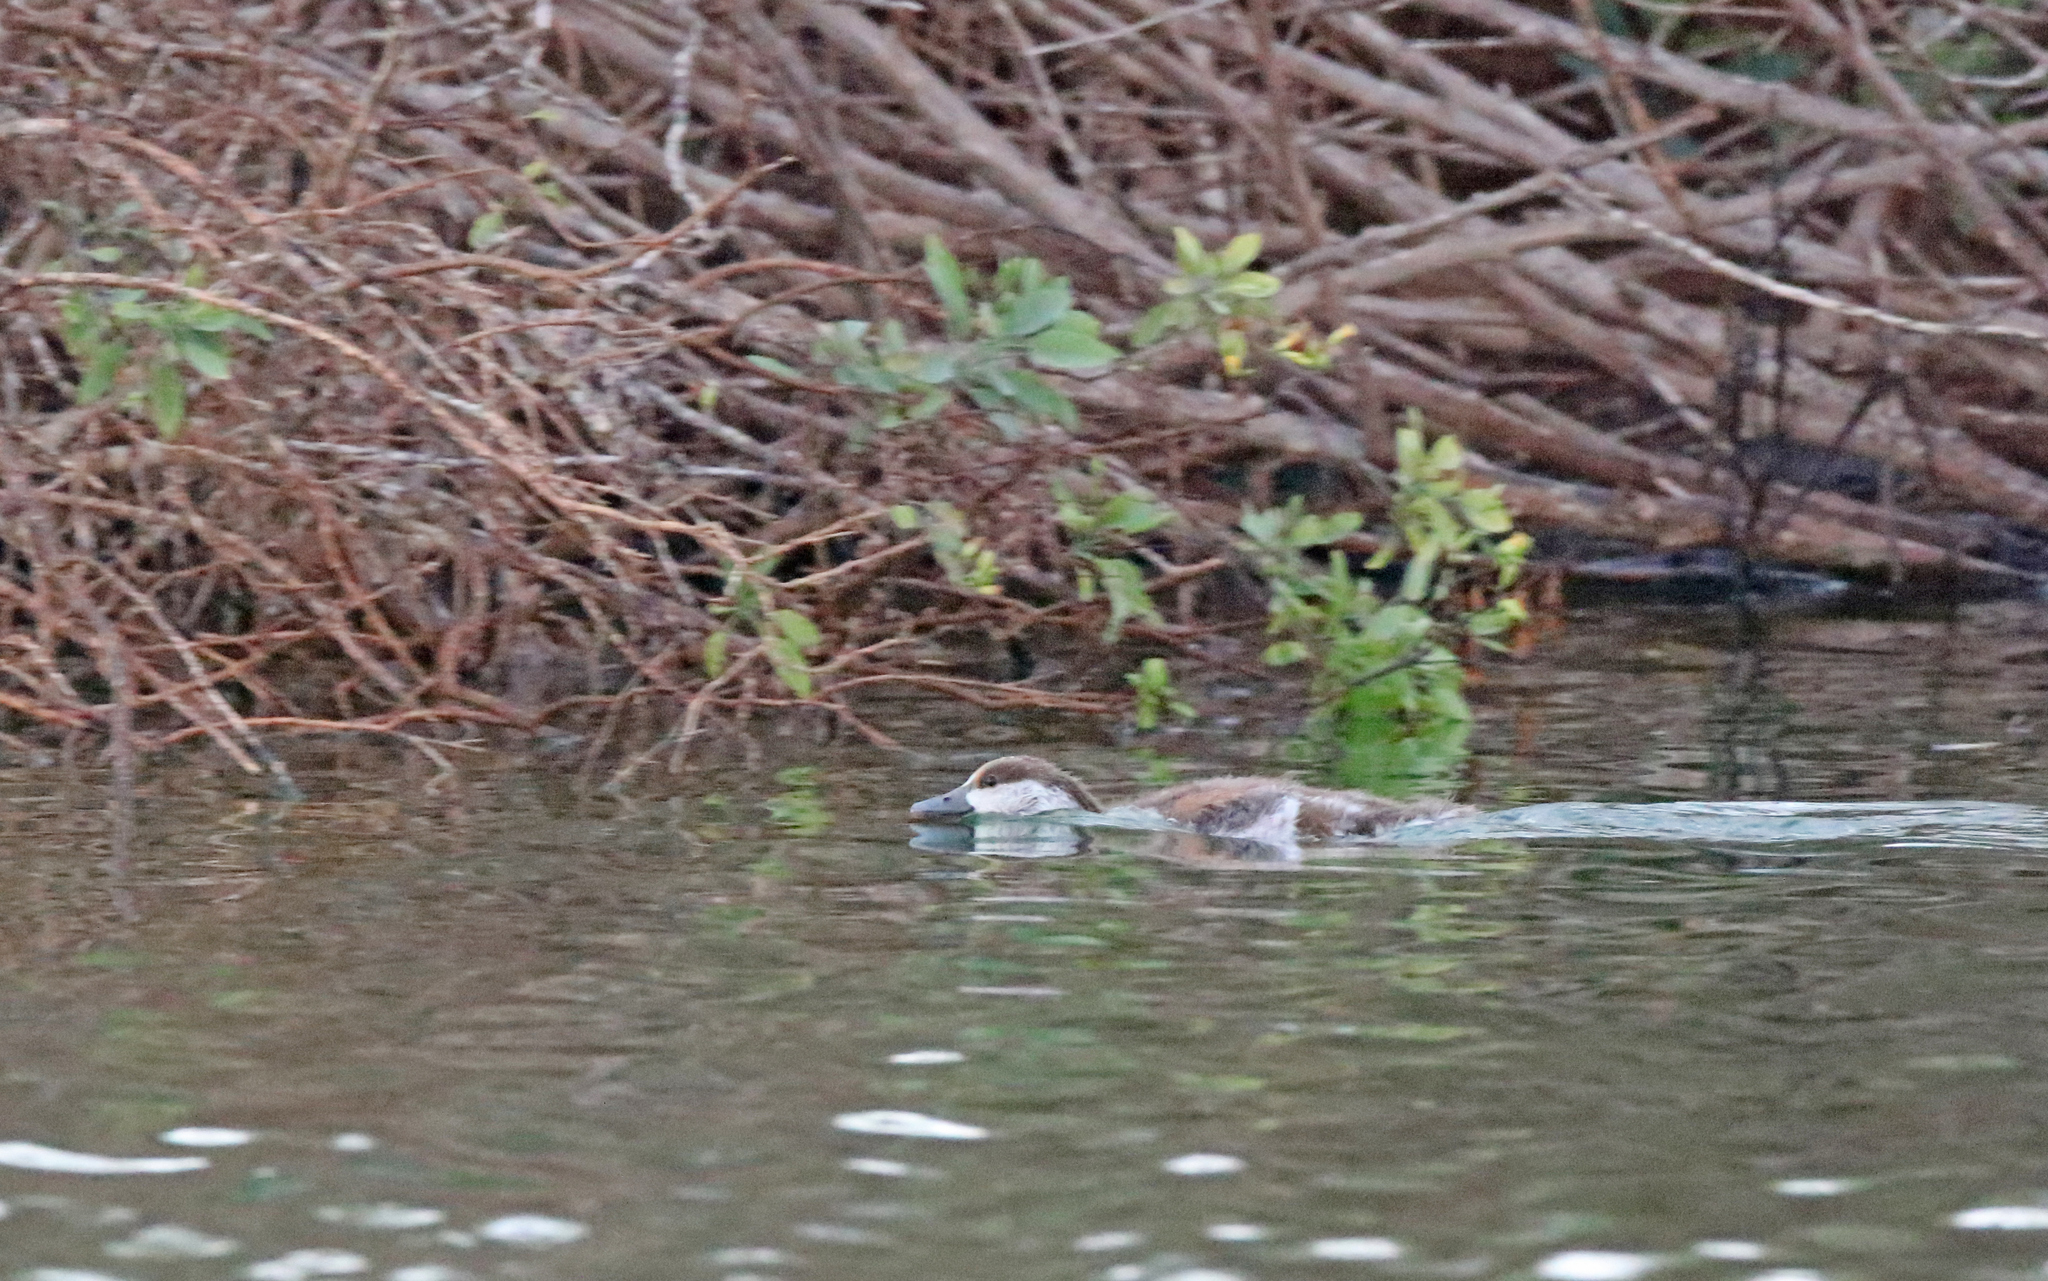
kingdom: Animalia
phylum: Chordata
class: Aves
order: Anseriformes
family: Anatidae
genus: Tadorna
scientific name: Tadorna ferruginea
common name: Ruddy shelduck
